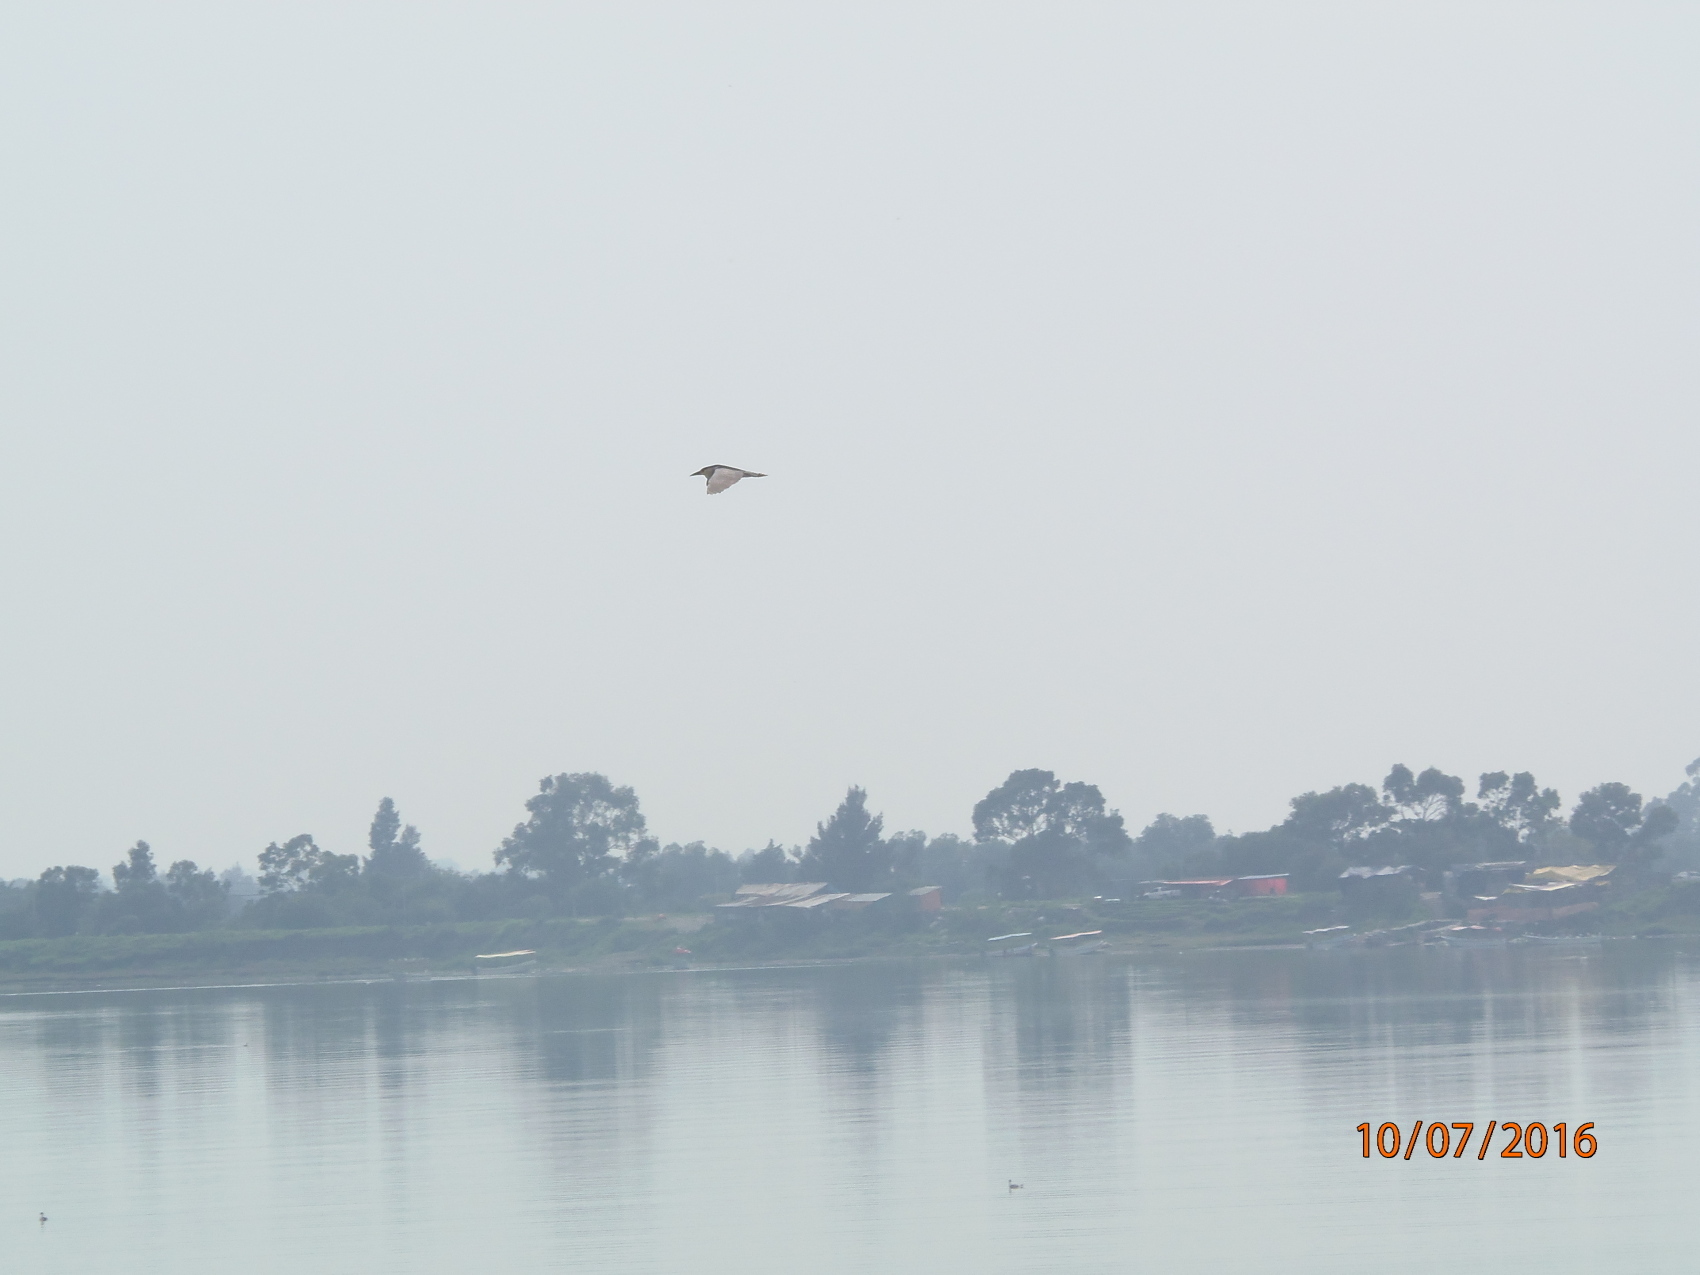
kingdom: Animalia
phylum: Chordata
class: Aves
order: Pelecaniformes
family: Ardeidae
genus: Nycticorax
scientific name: Nycticorax nycticorax
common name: Black-crowned night heron
